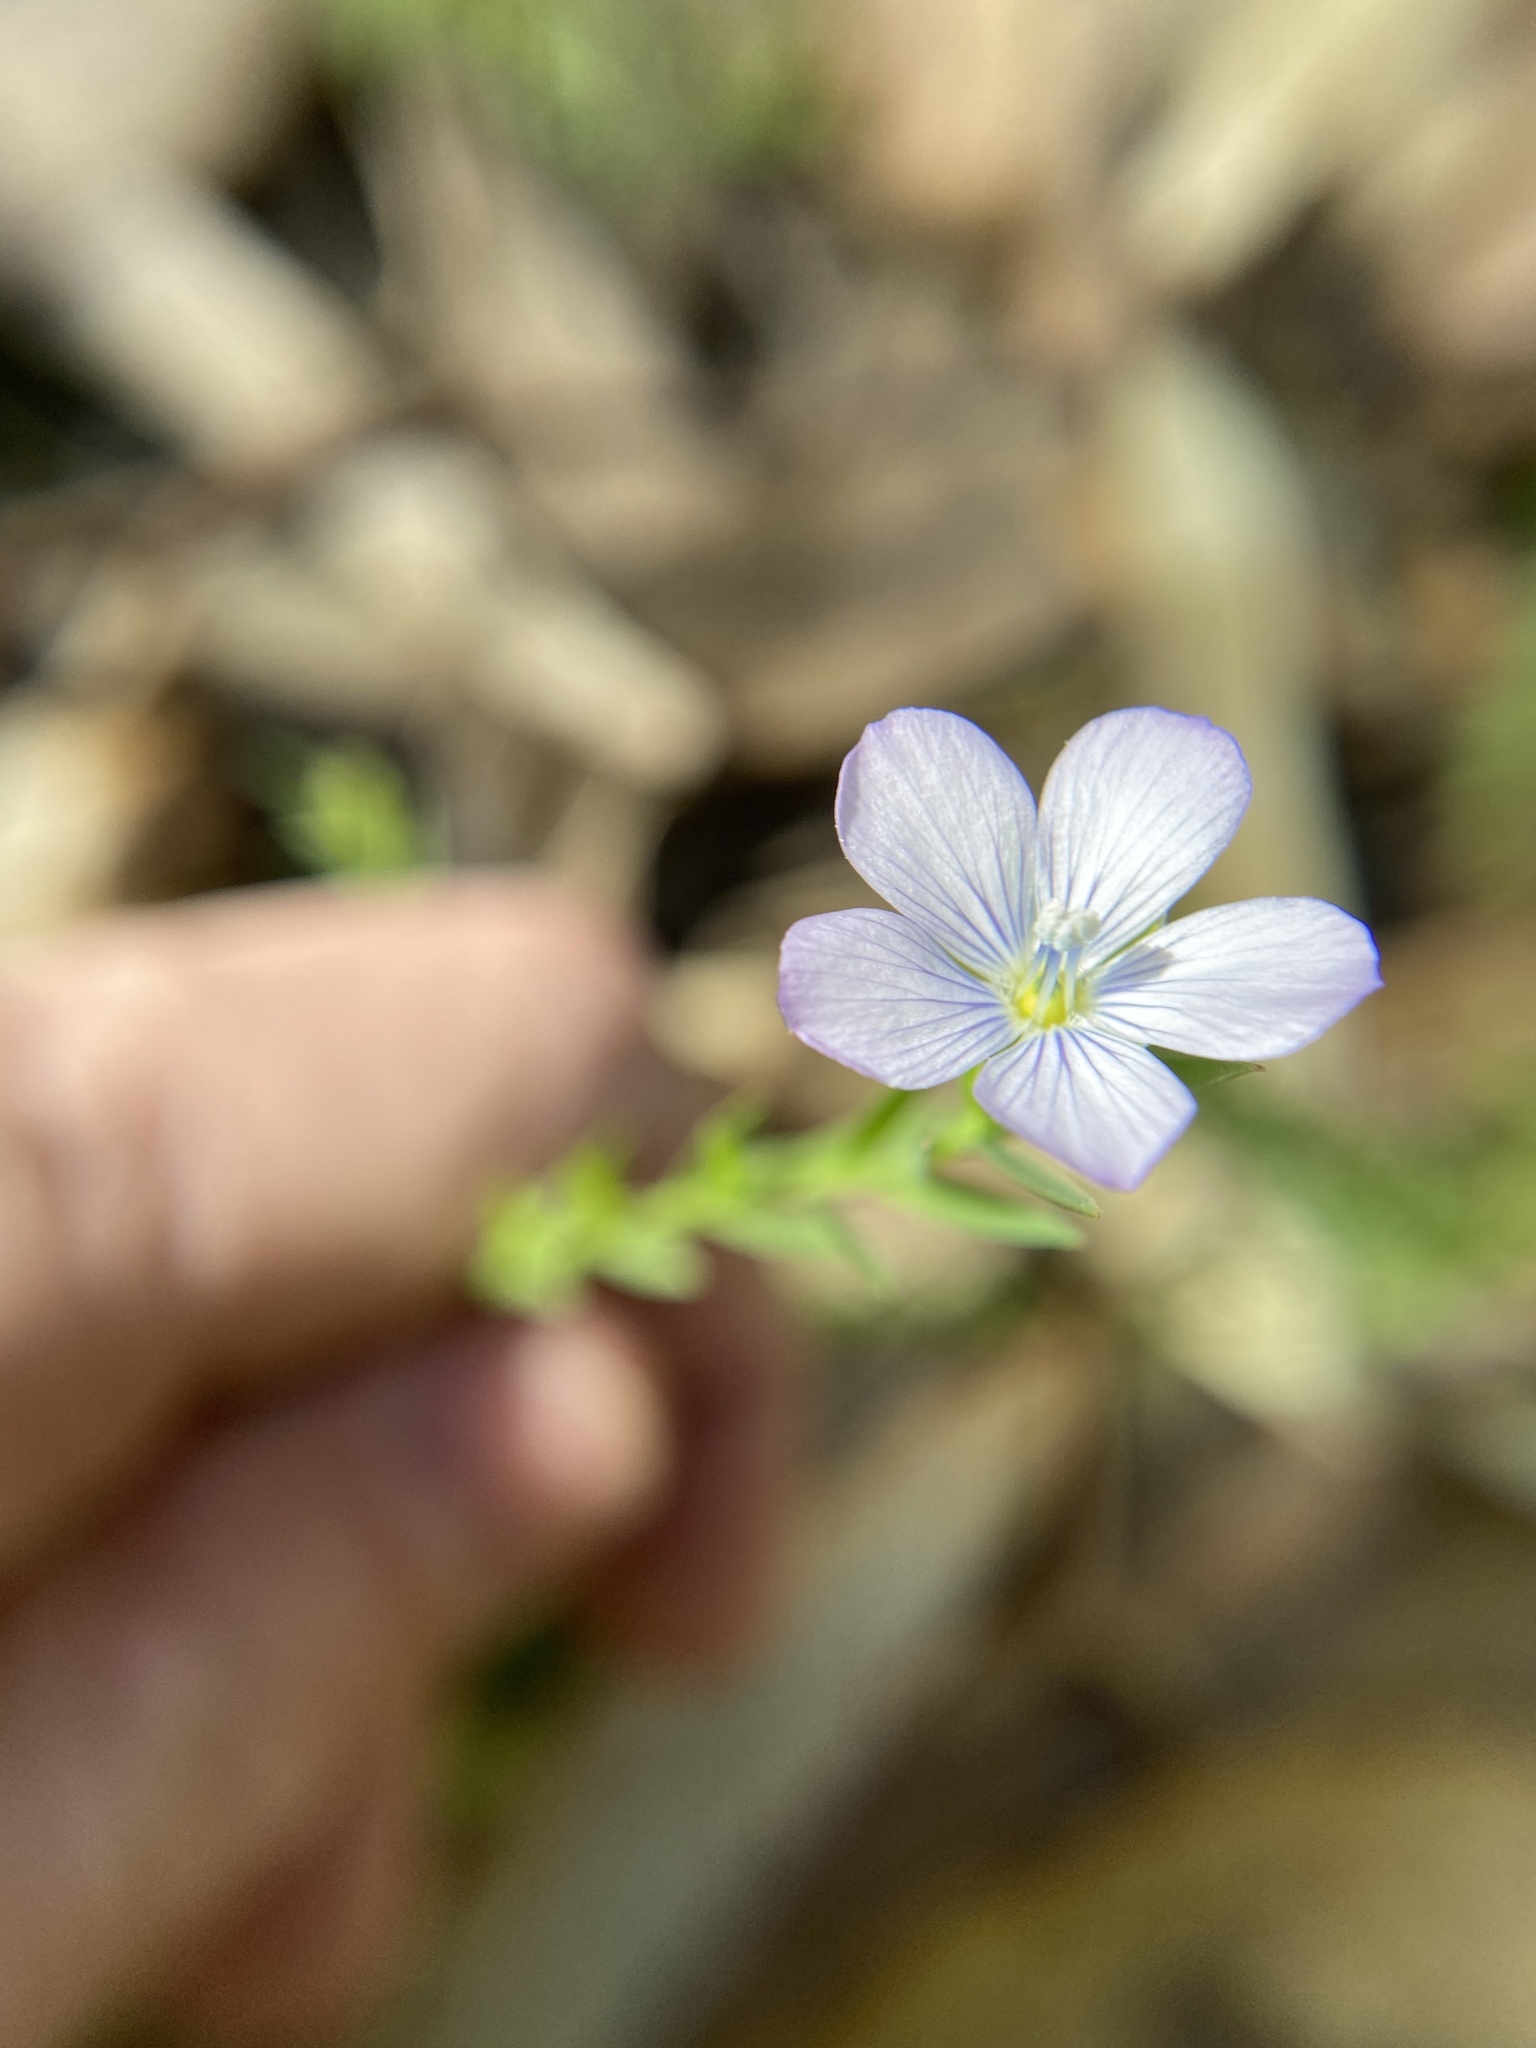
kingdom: Plantae
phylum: Tracheophyta
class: Magnoliopsida
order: Malpighiales
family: Linaceae
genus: Linum
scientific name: Linum bienne
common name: Pale flax
